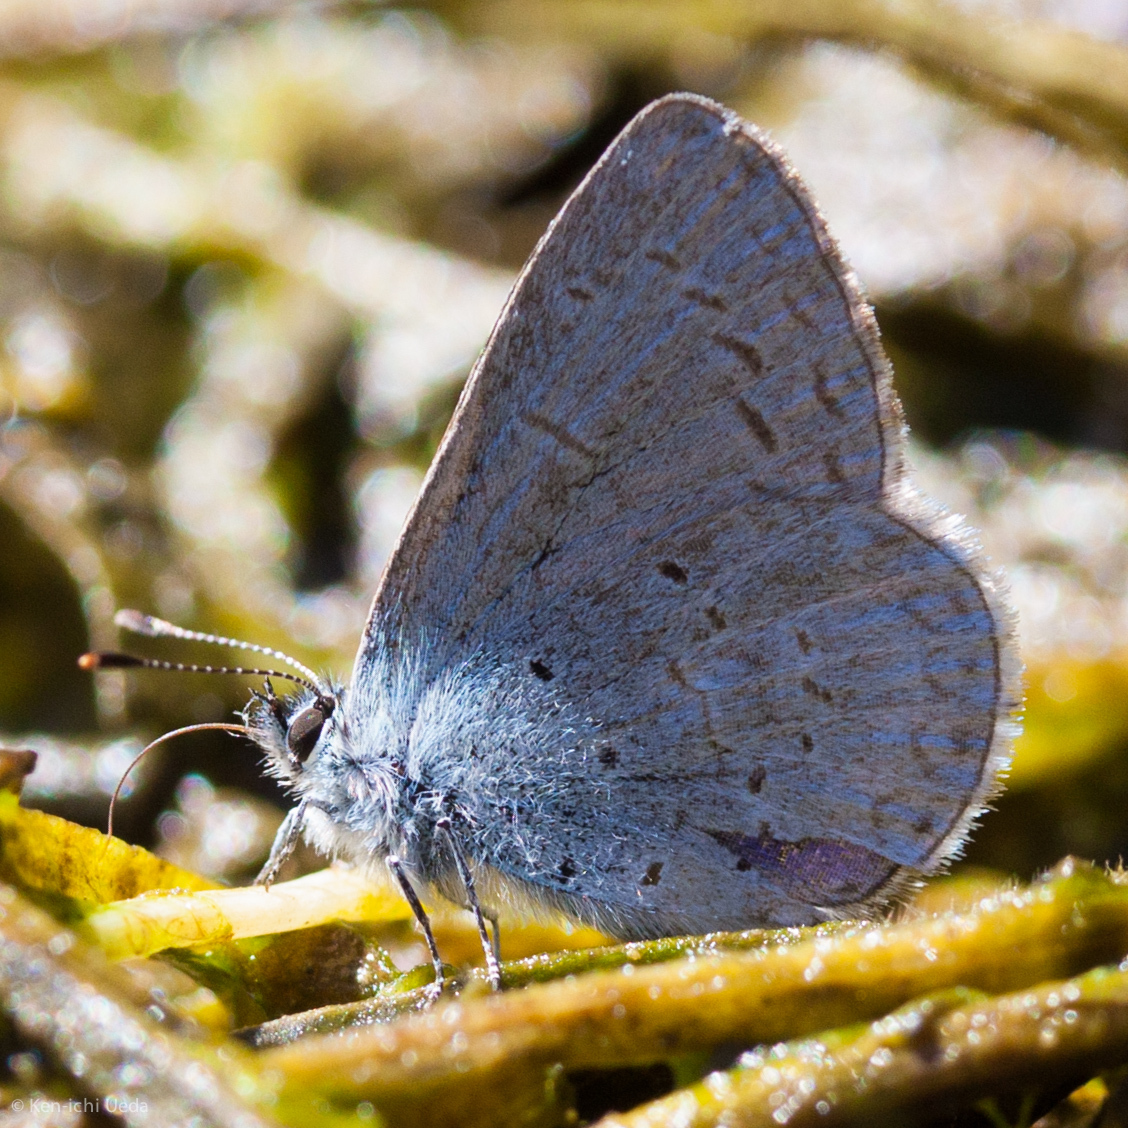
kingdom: Animalia
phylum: Arthropoda
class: Insecta
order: Lepidoptera
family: Lycaenidae
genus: Celastrina
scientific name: Celastrina ladon
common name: Spring azure
